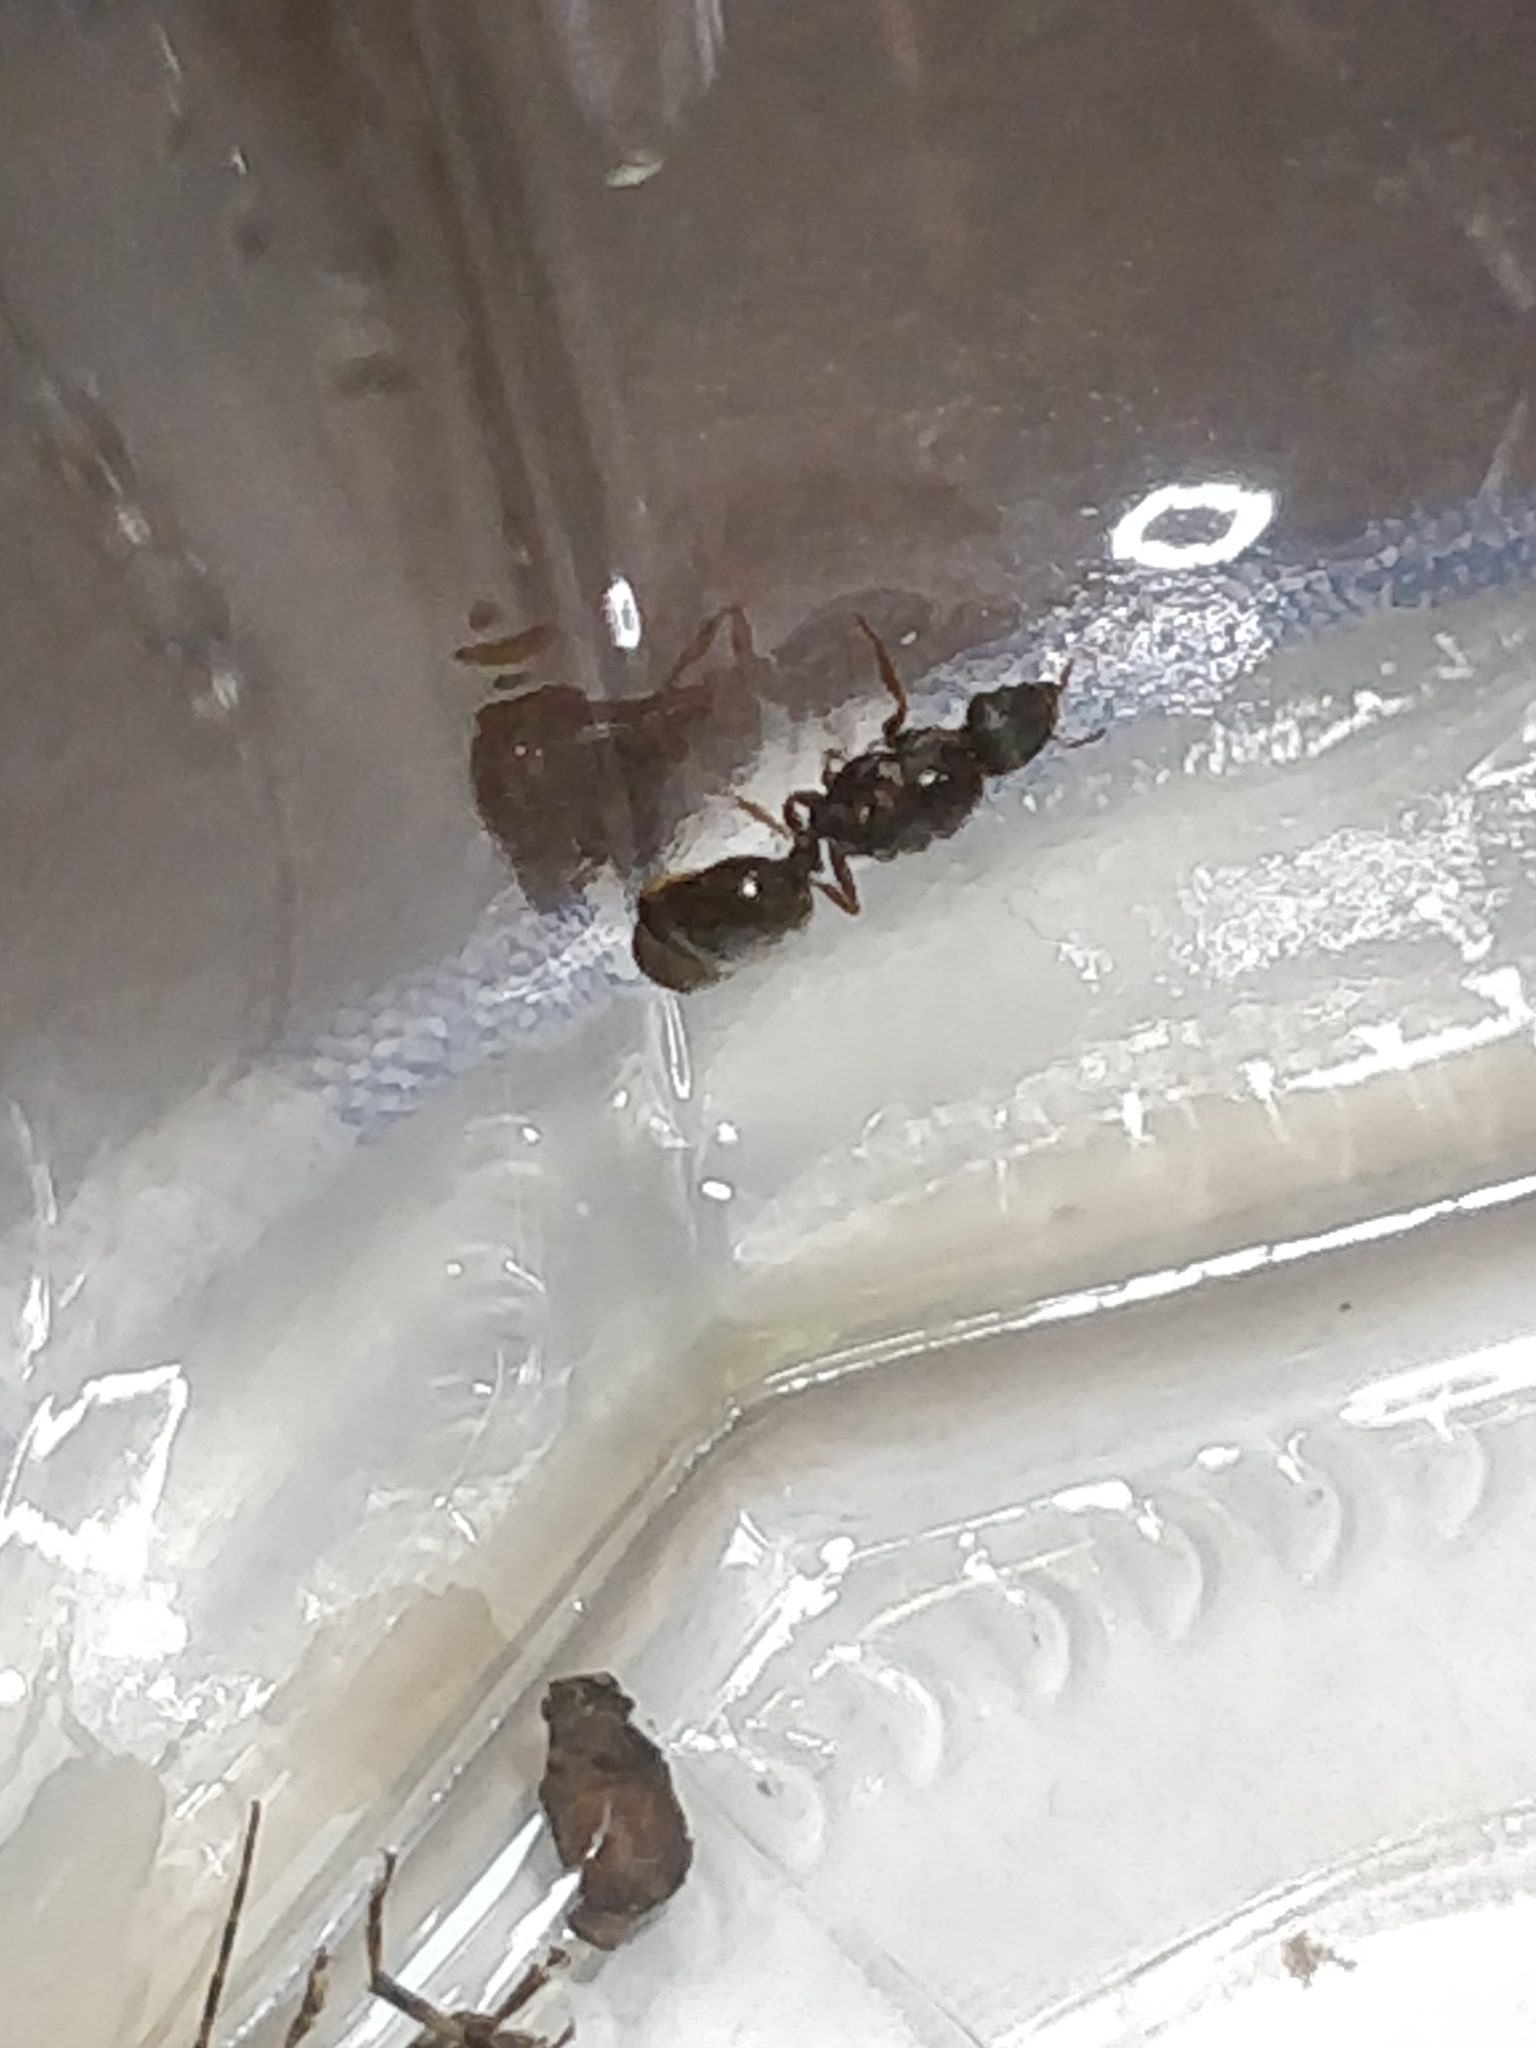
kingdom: Animalia
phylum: Arthropoda
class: Insecta
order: Hymenoptera
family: Formicidae
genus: Tetramorium
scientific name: Tetramorium immigrans
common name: Pavement ant
